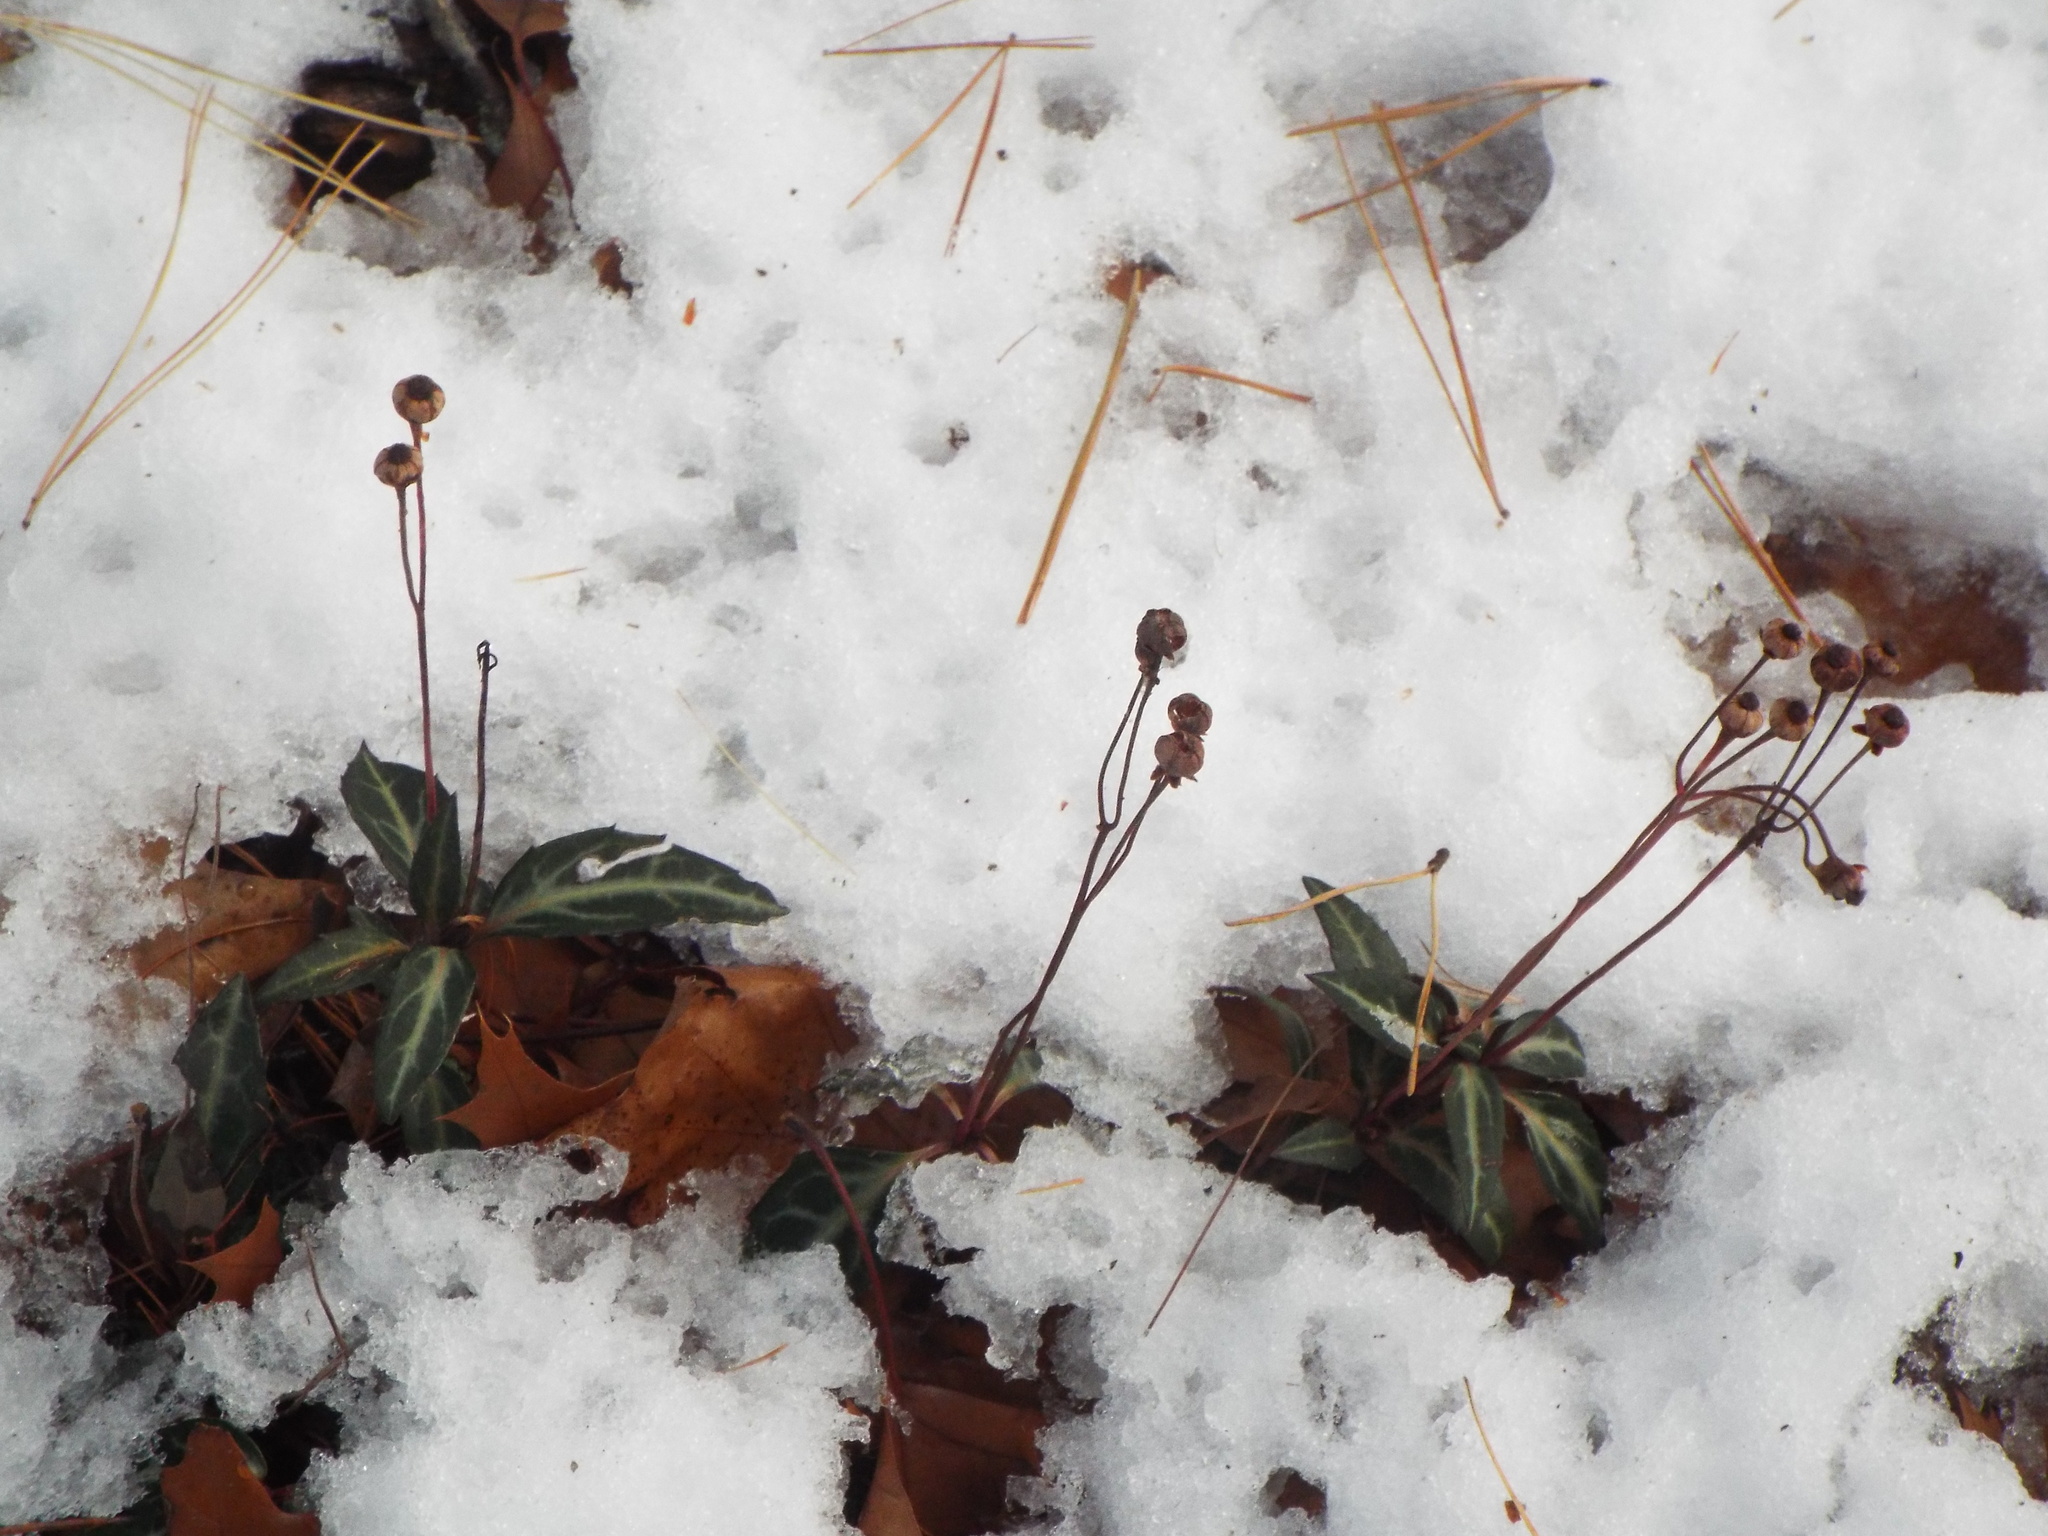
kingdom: Plantae
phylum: Tracheophyta
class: Magnoliopsida
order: Ericales
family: Ericaceae
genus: Chimaphila
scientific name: Chimaphila maculata
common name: Spotted pipsissewa
